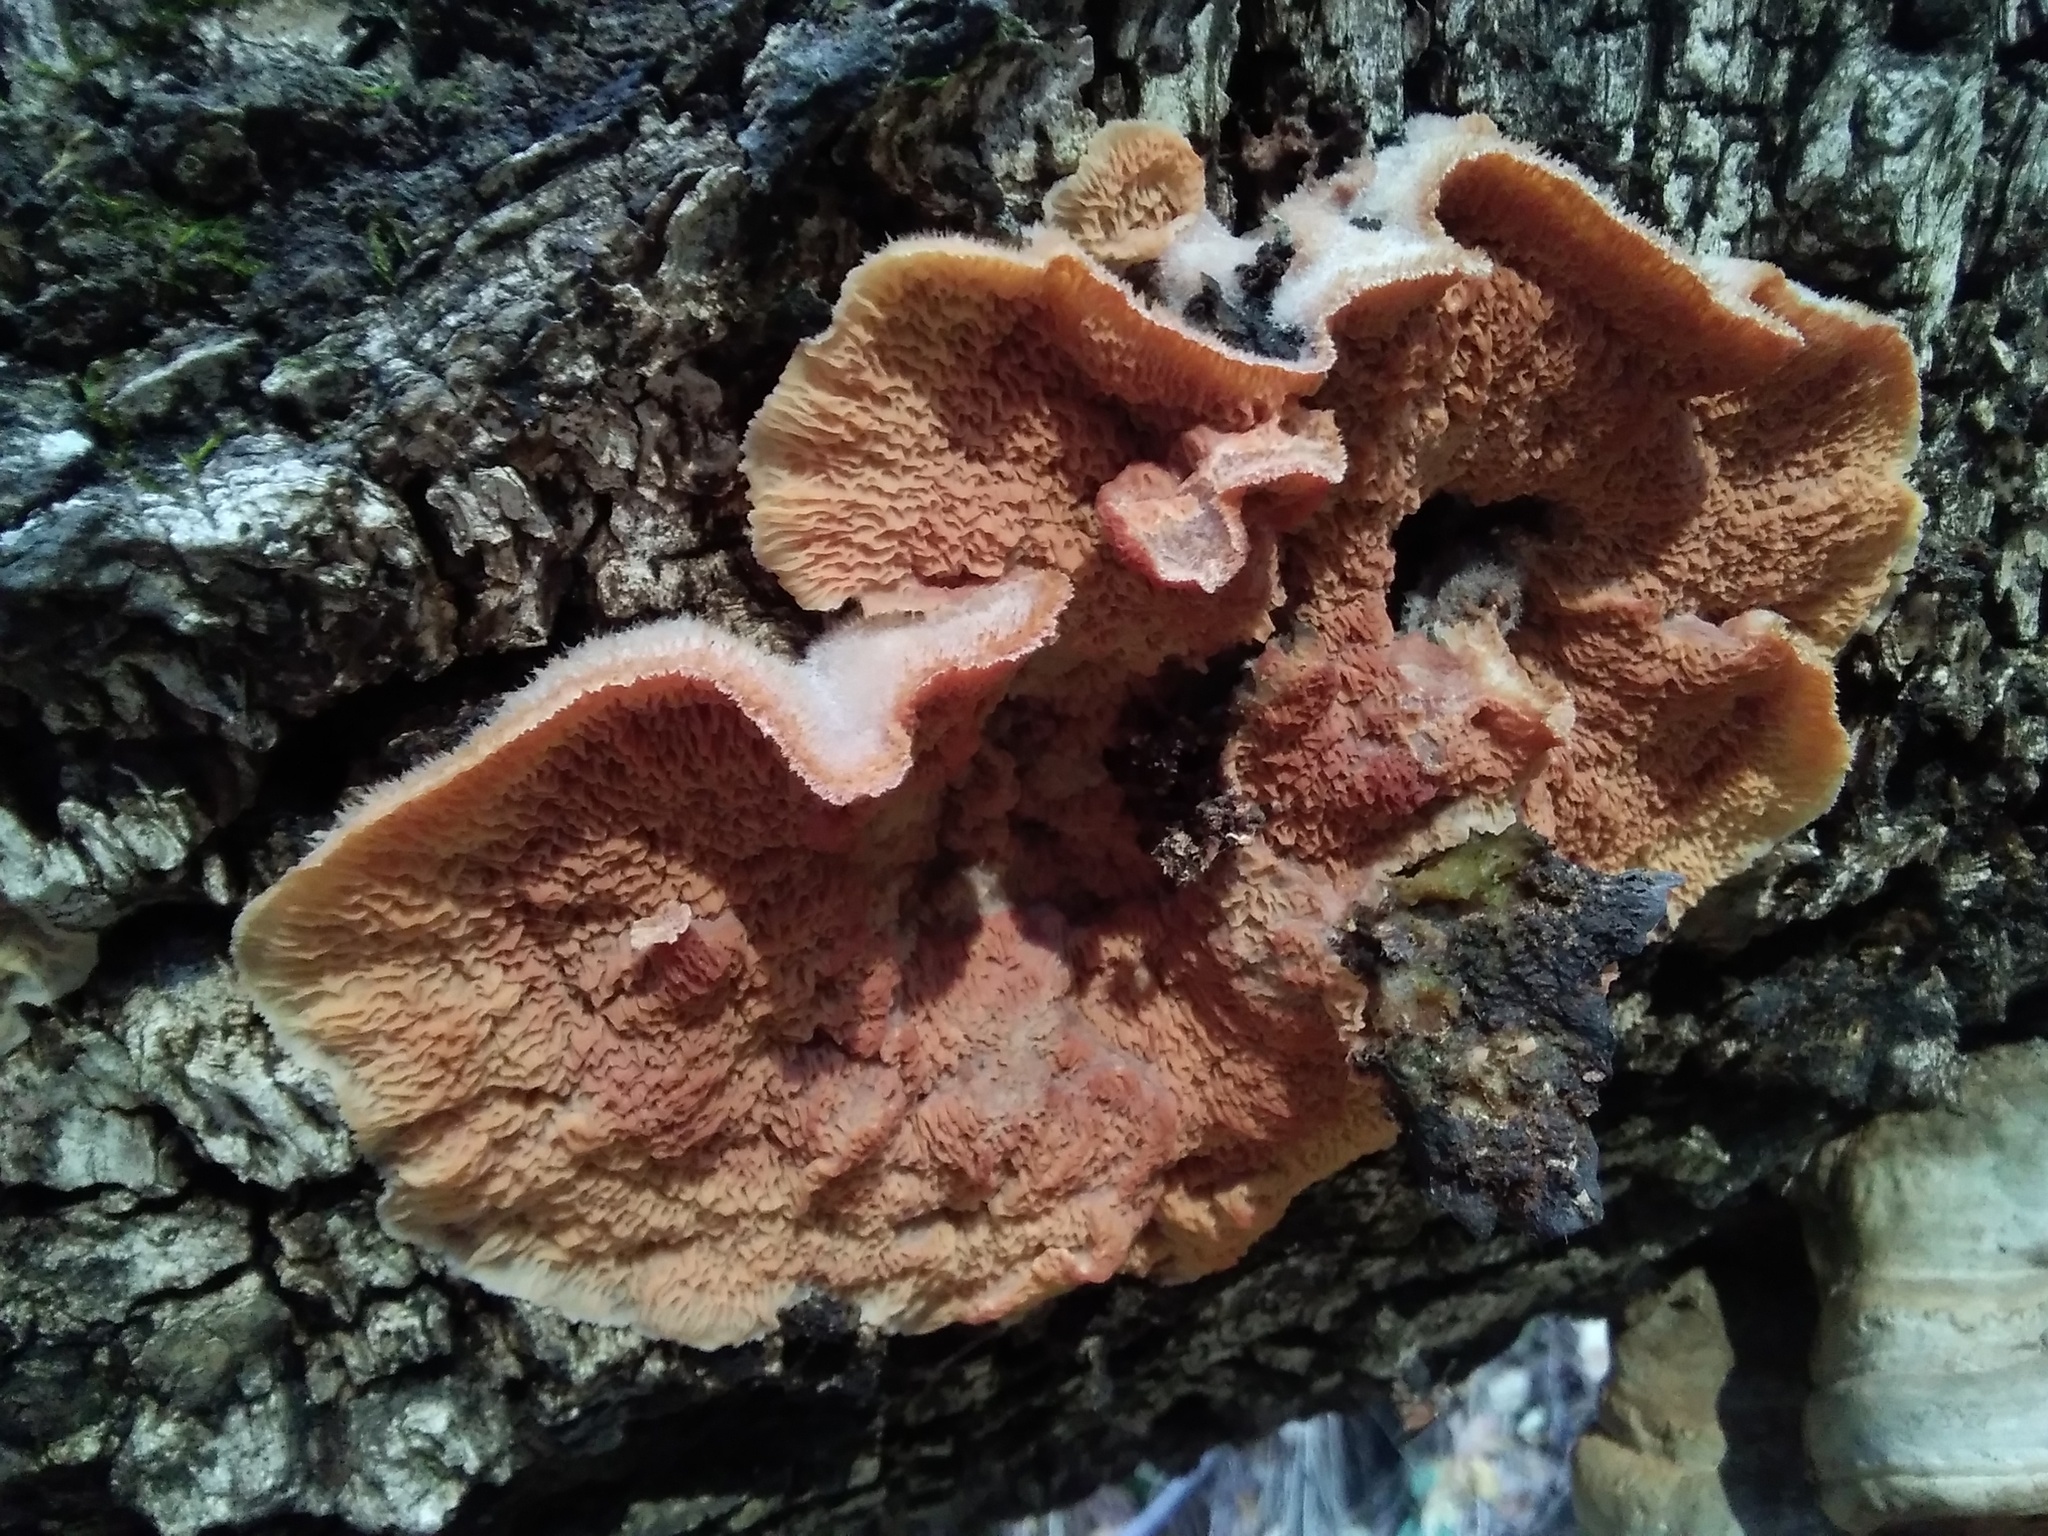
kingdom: Fungi
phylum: Basidiomycota
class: Agaricomycetes
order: Polyporales
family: Meruliaceae
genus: Phlebia
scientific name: Phlebia tremellosa
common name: Jelly rot
